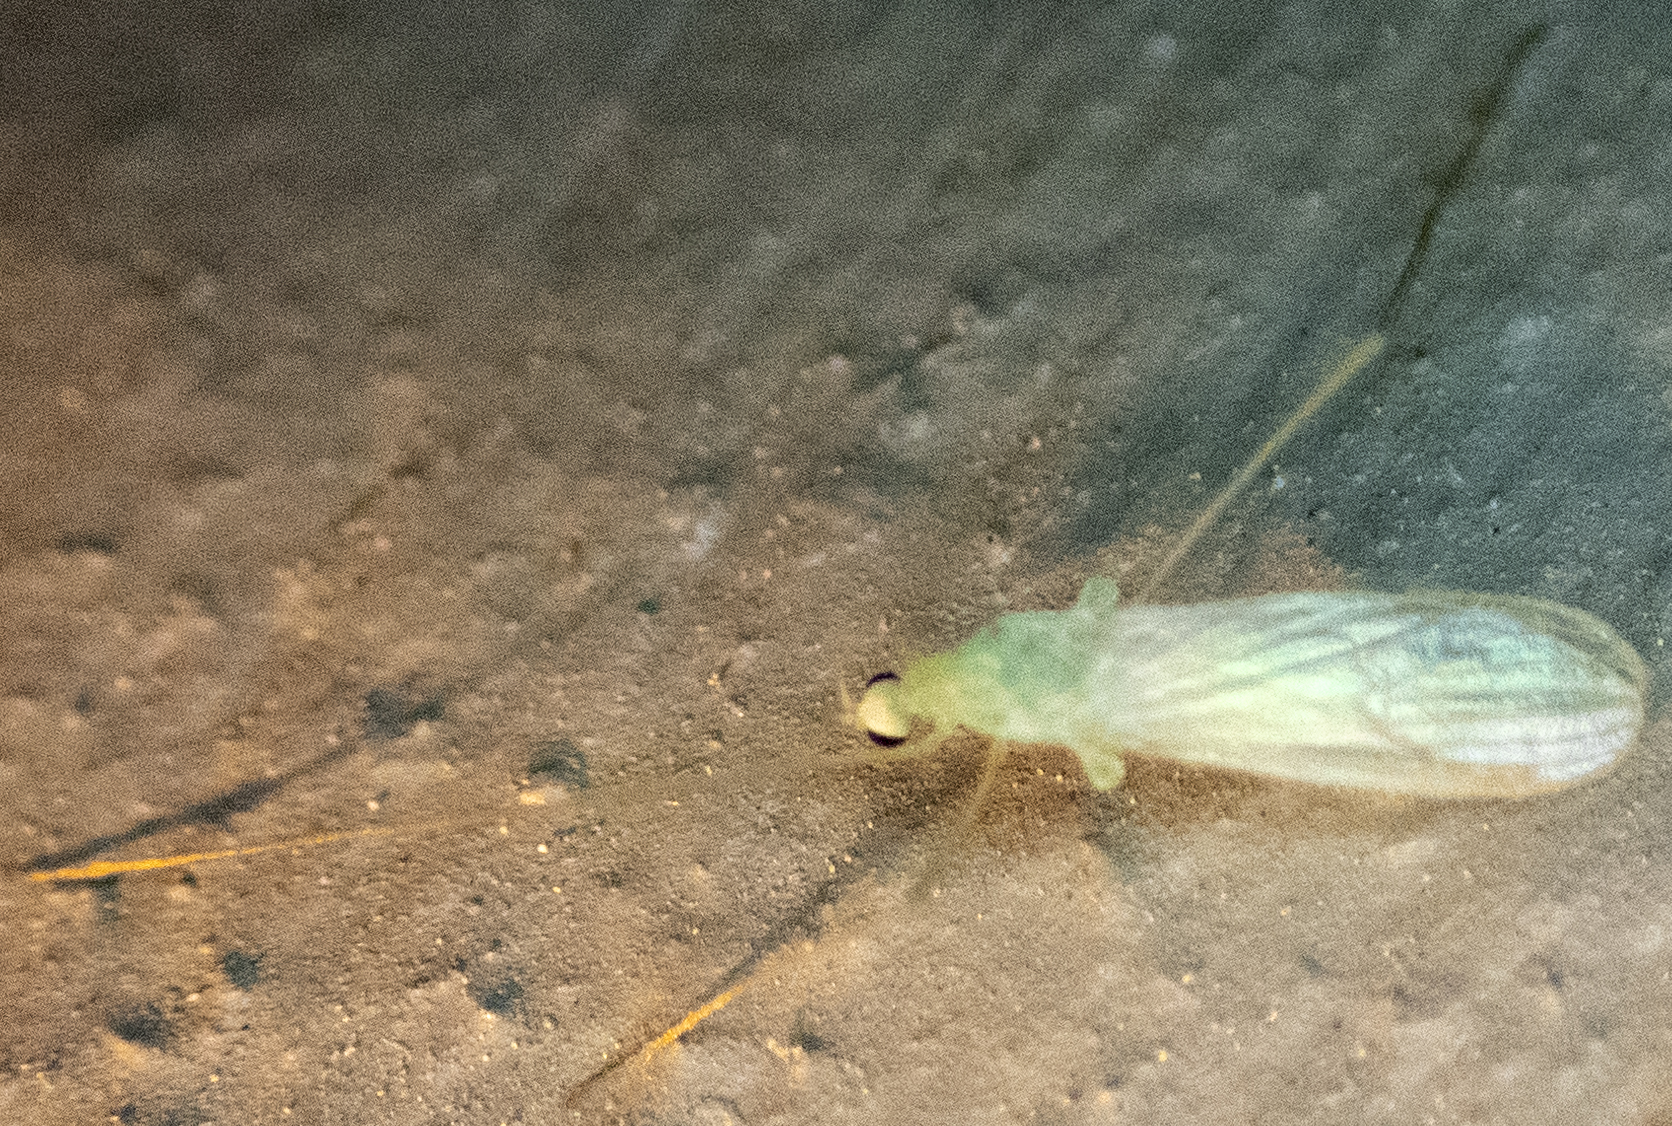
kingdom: Animalia
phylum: Arthropoda
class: Insecta
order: Diptera
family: Limoniidae
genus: Erioptera
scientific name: Erioptera
